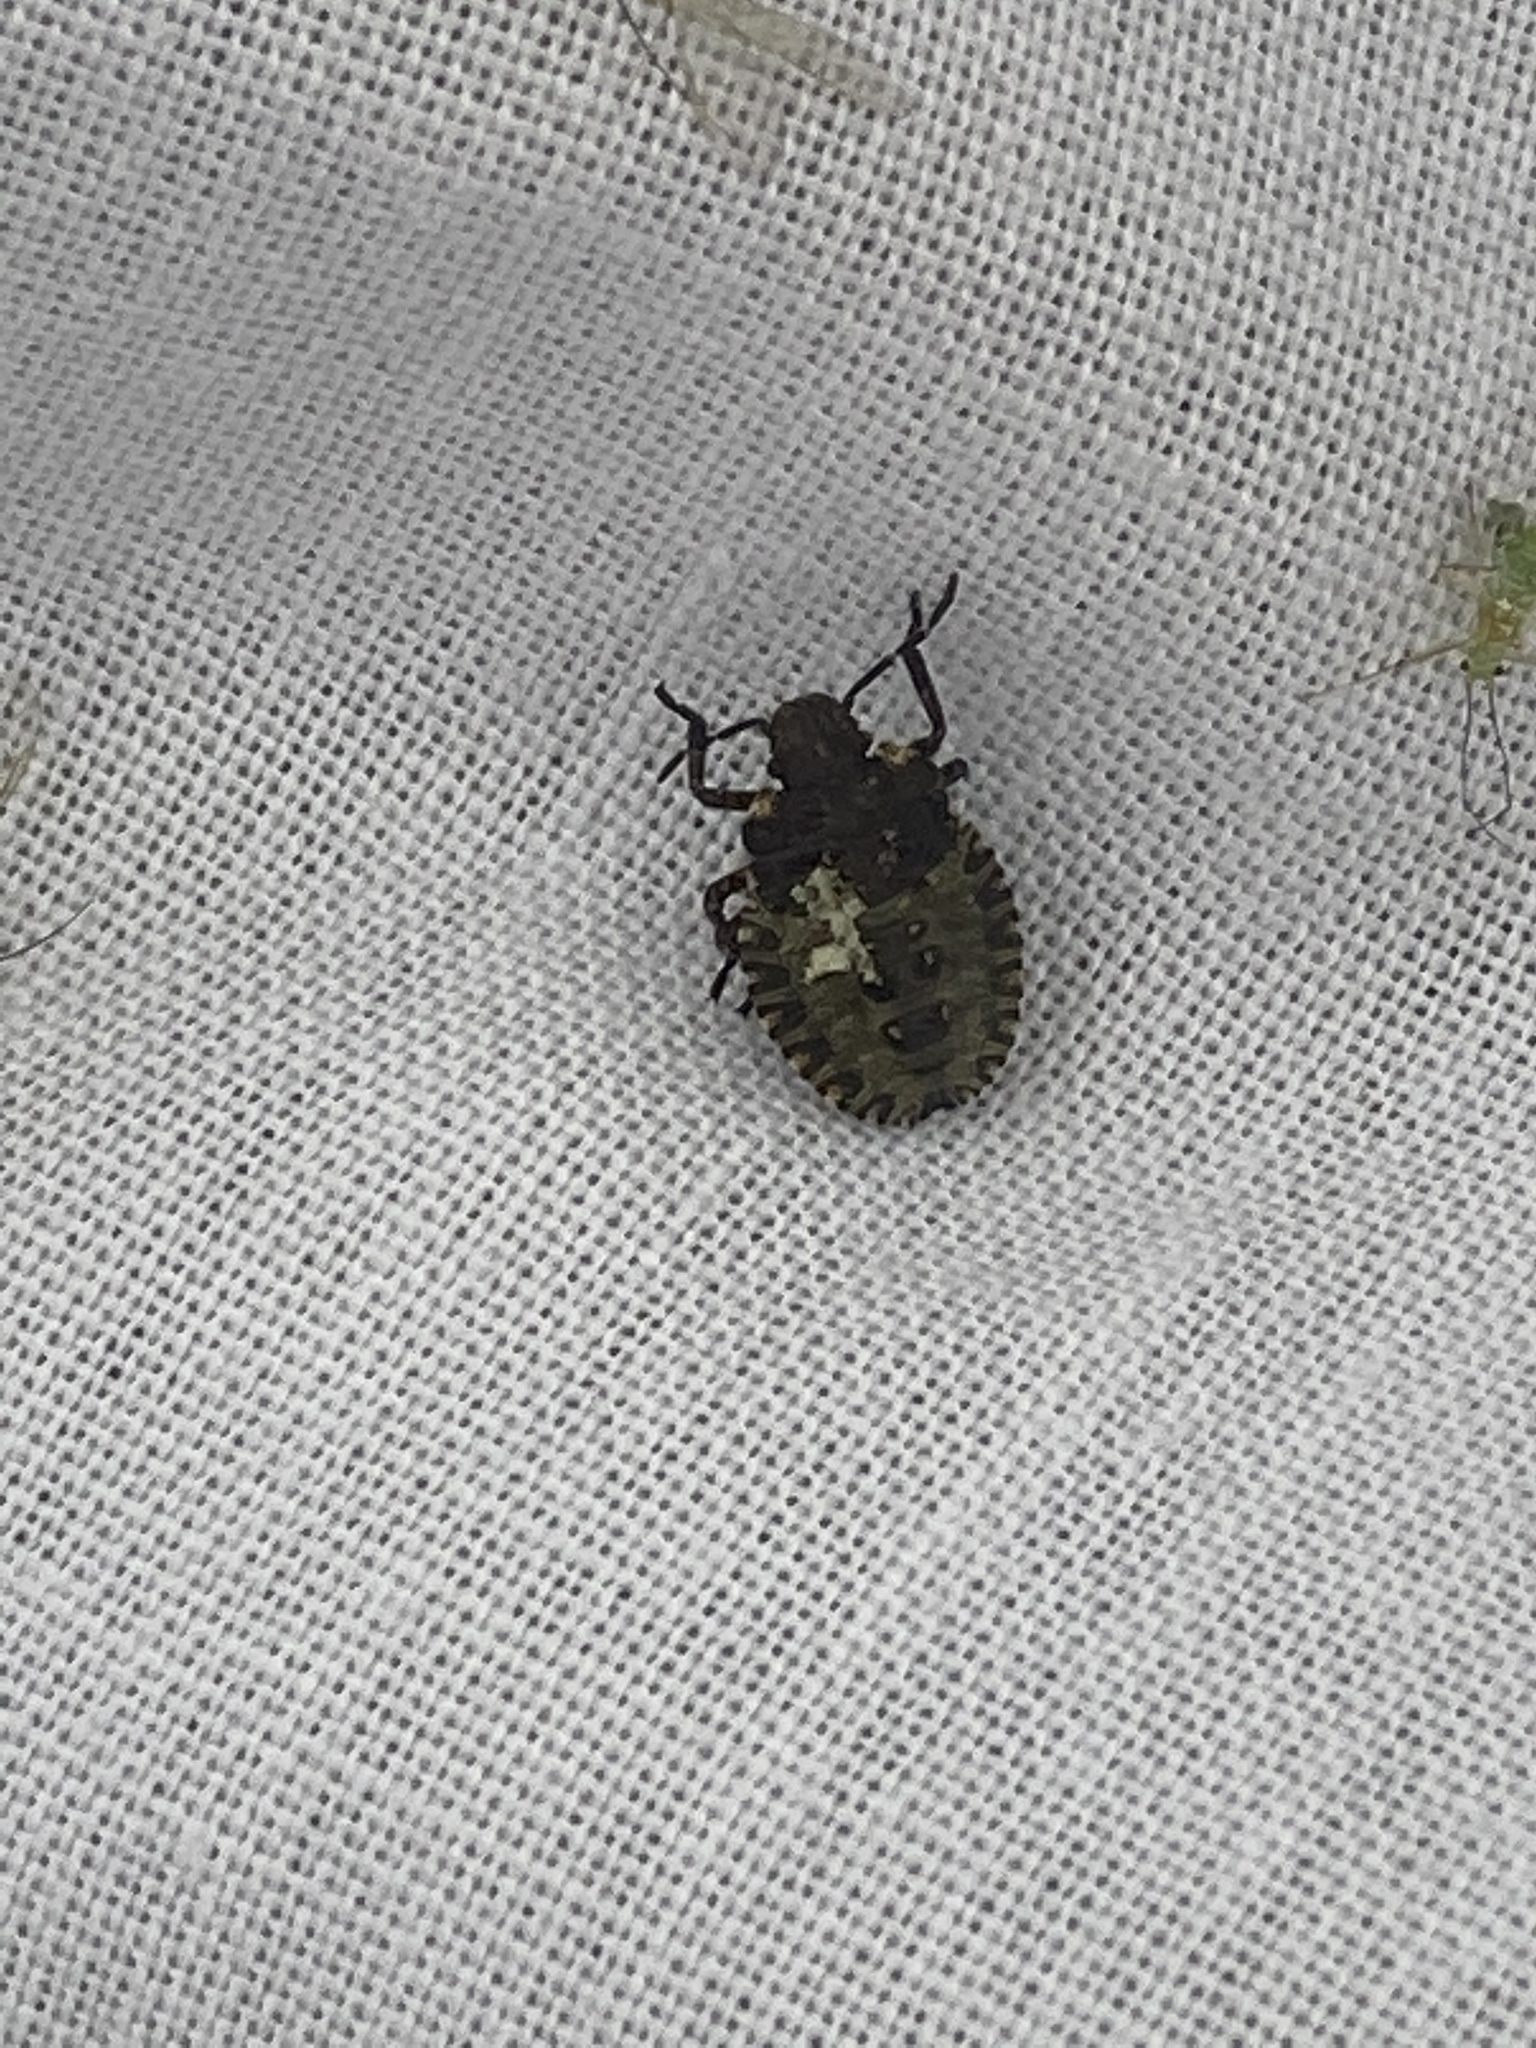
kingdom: Animalia
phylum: Arthropoda
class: Insecta
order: Hemiptera
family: Pentatomidae
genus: Pentatoma
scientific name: Pentatoma rufipes
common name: Forest bug
